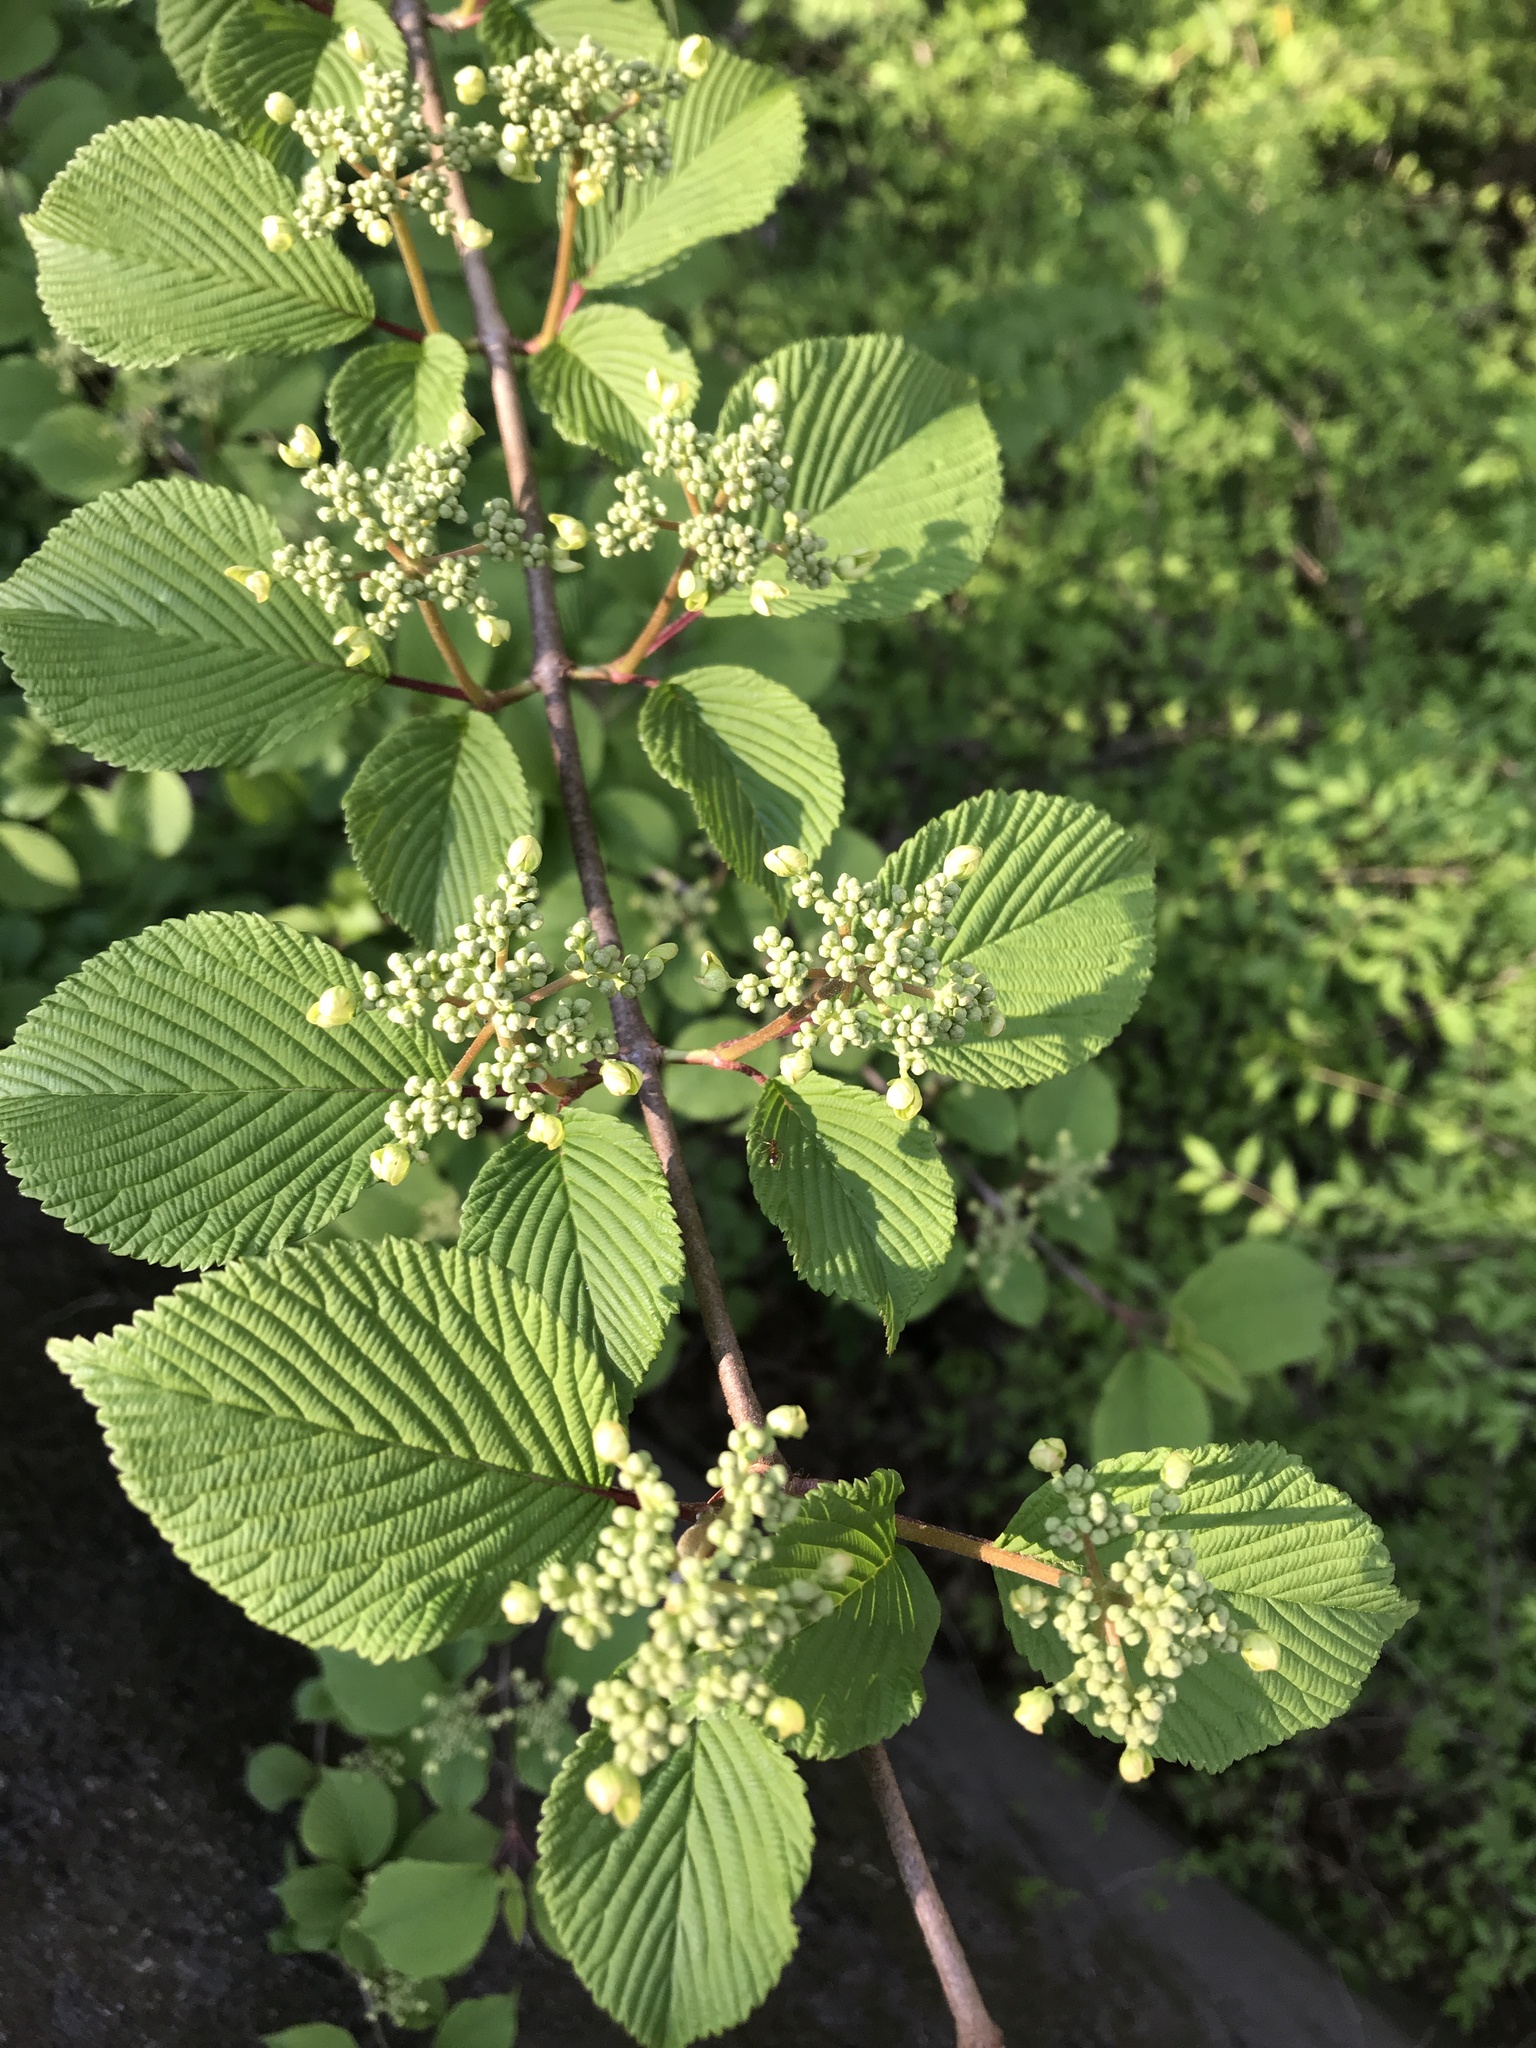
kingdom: Plantae
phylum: Tracheophyta
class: Magnoliopsida
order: Dipsacales
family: Viburnaceae
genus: Viburnum
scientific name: Viburnum plicatum
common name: Japanese snowball
